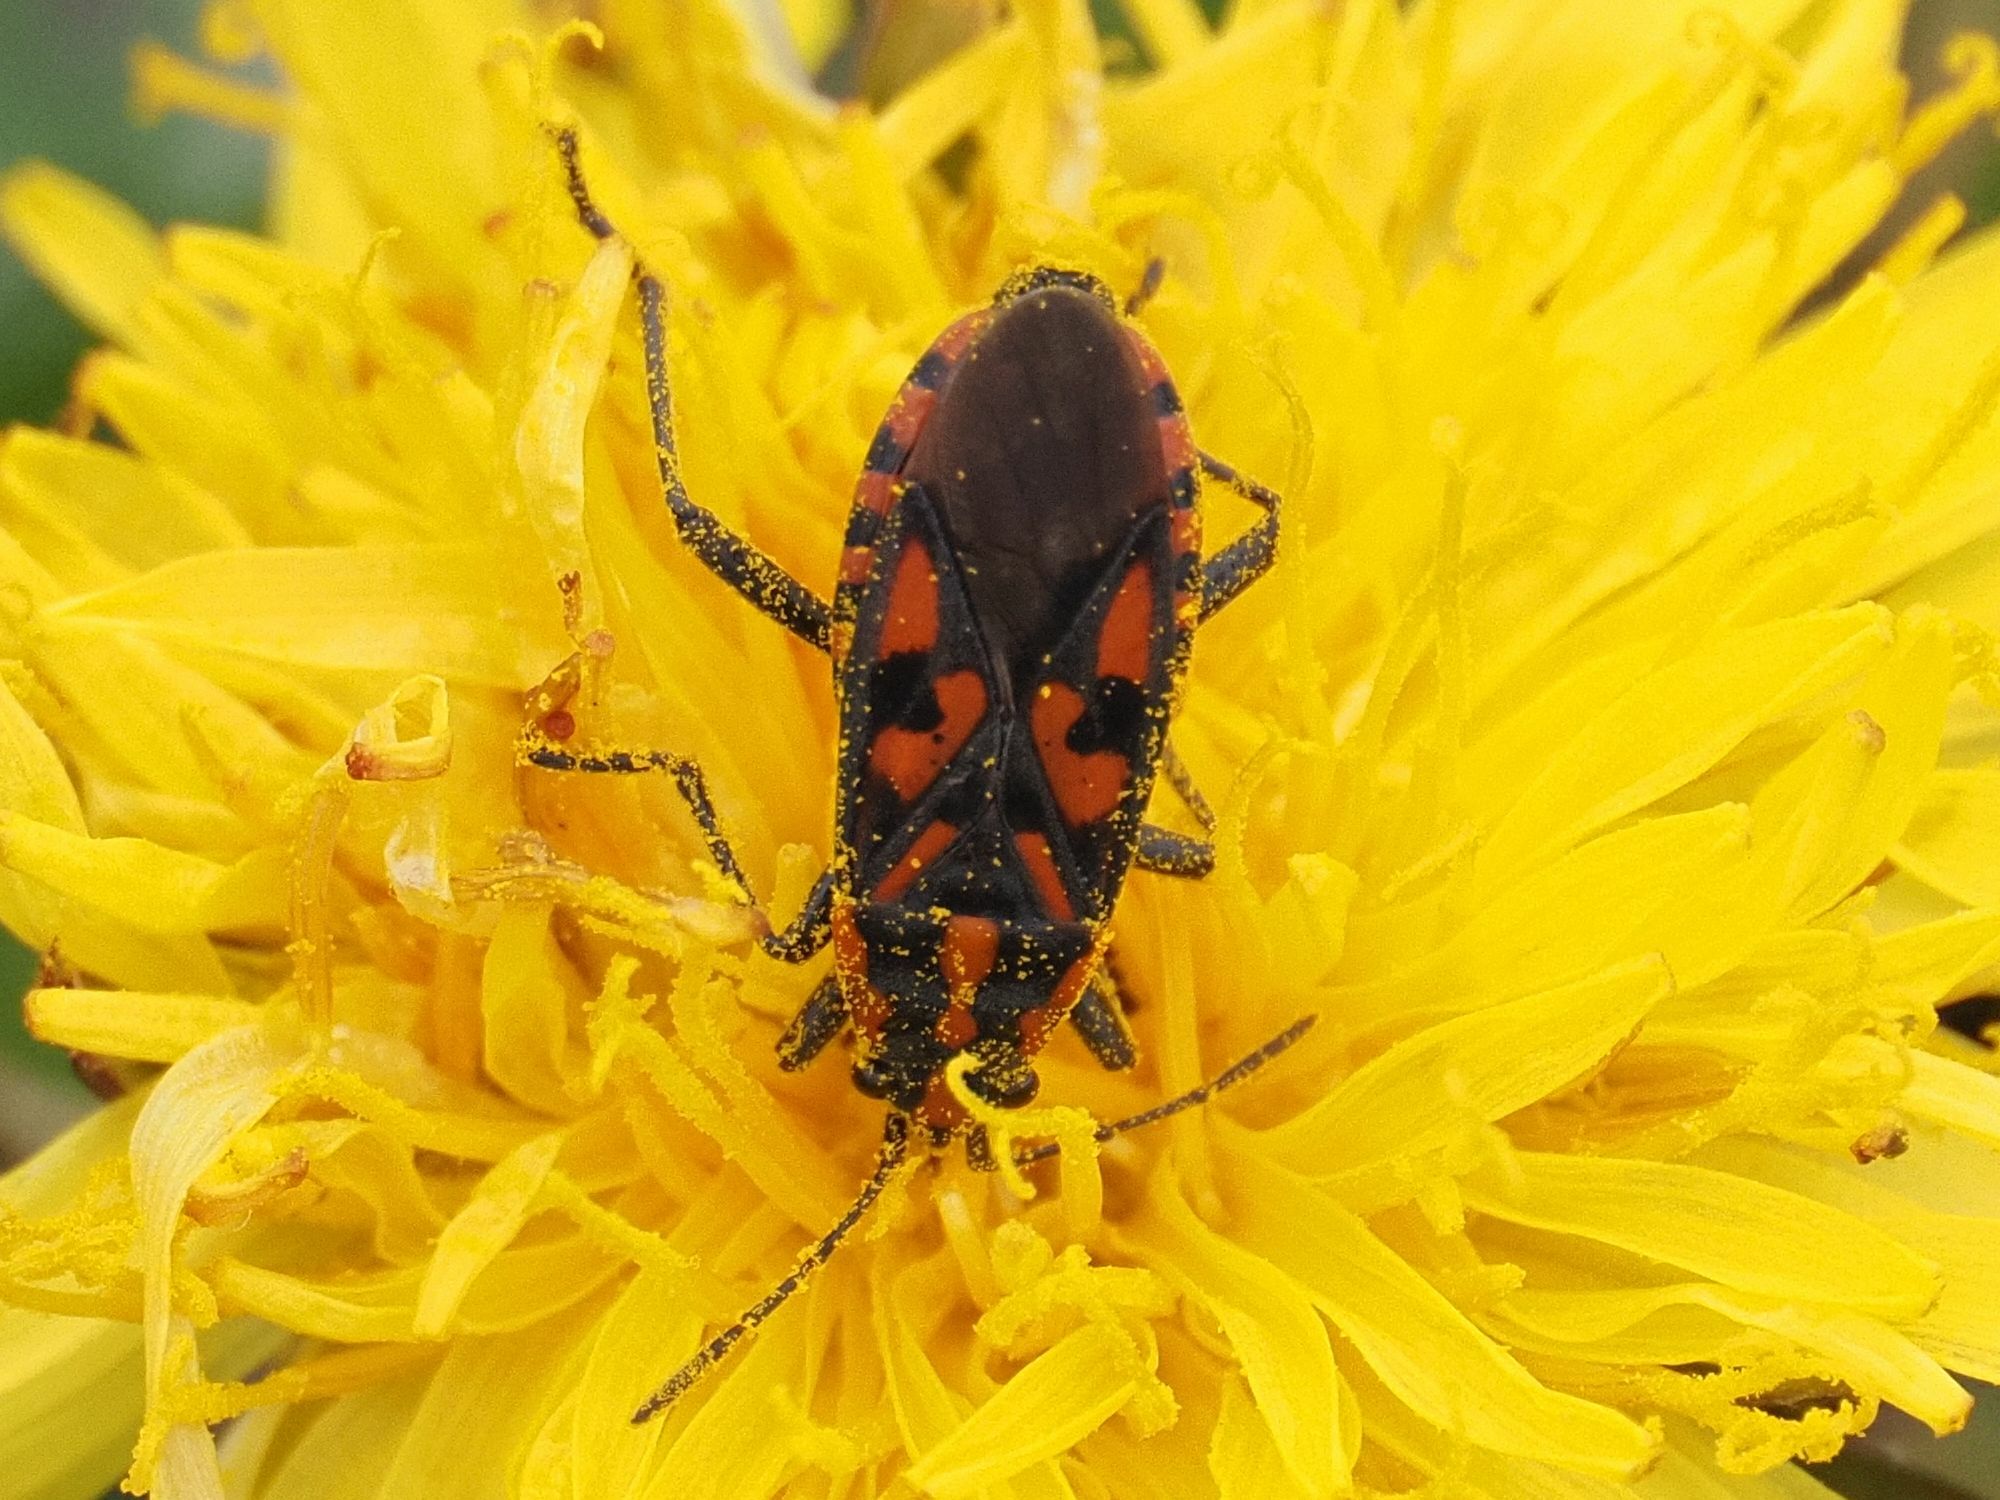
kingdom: Animalia
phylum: Arthropoda
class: Insecta
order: Hemiptera
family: Lygaeidae
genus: Spilostethus
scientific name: Spilostethus saxatilis
